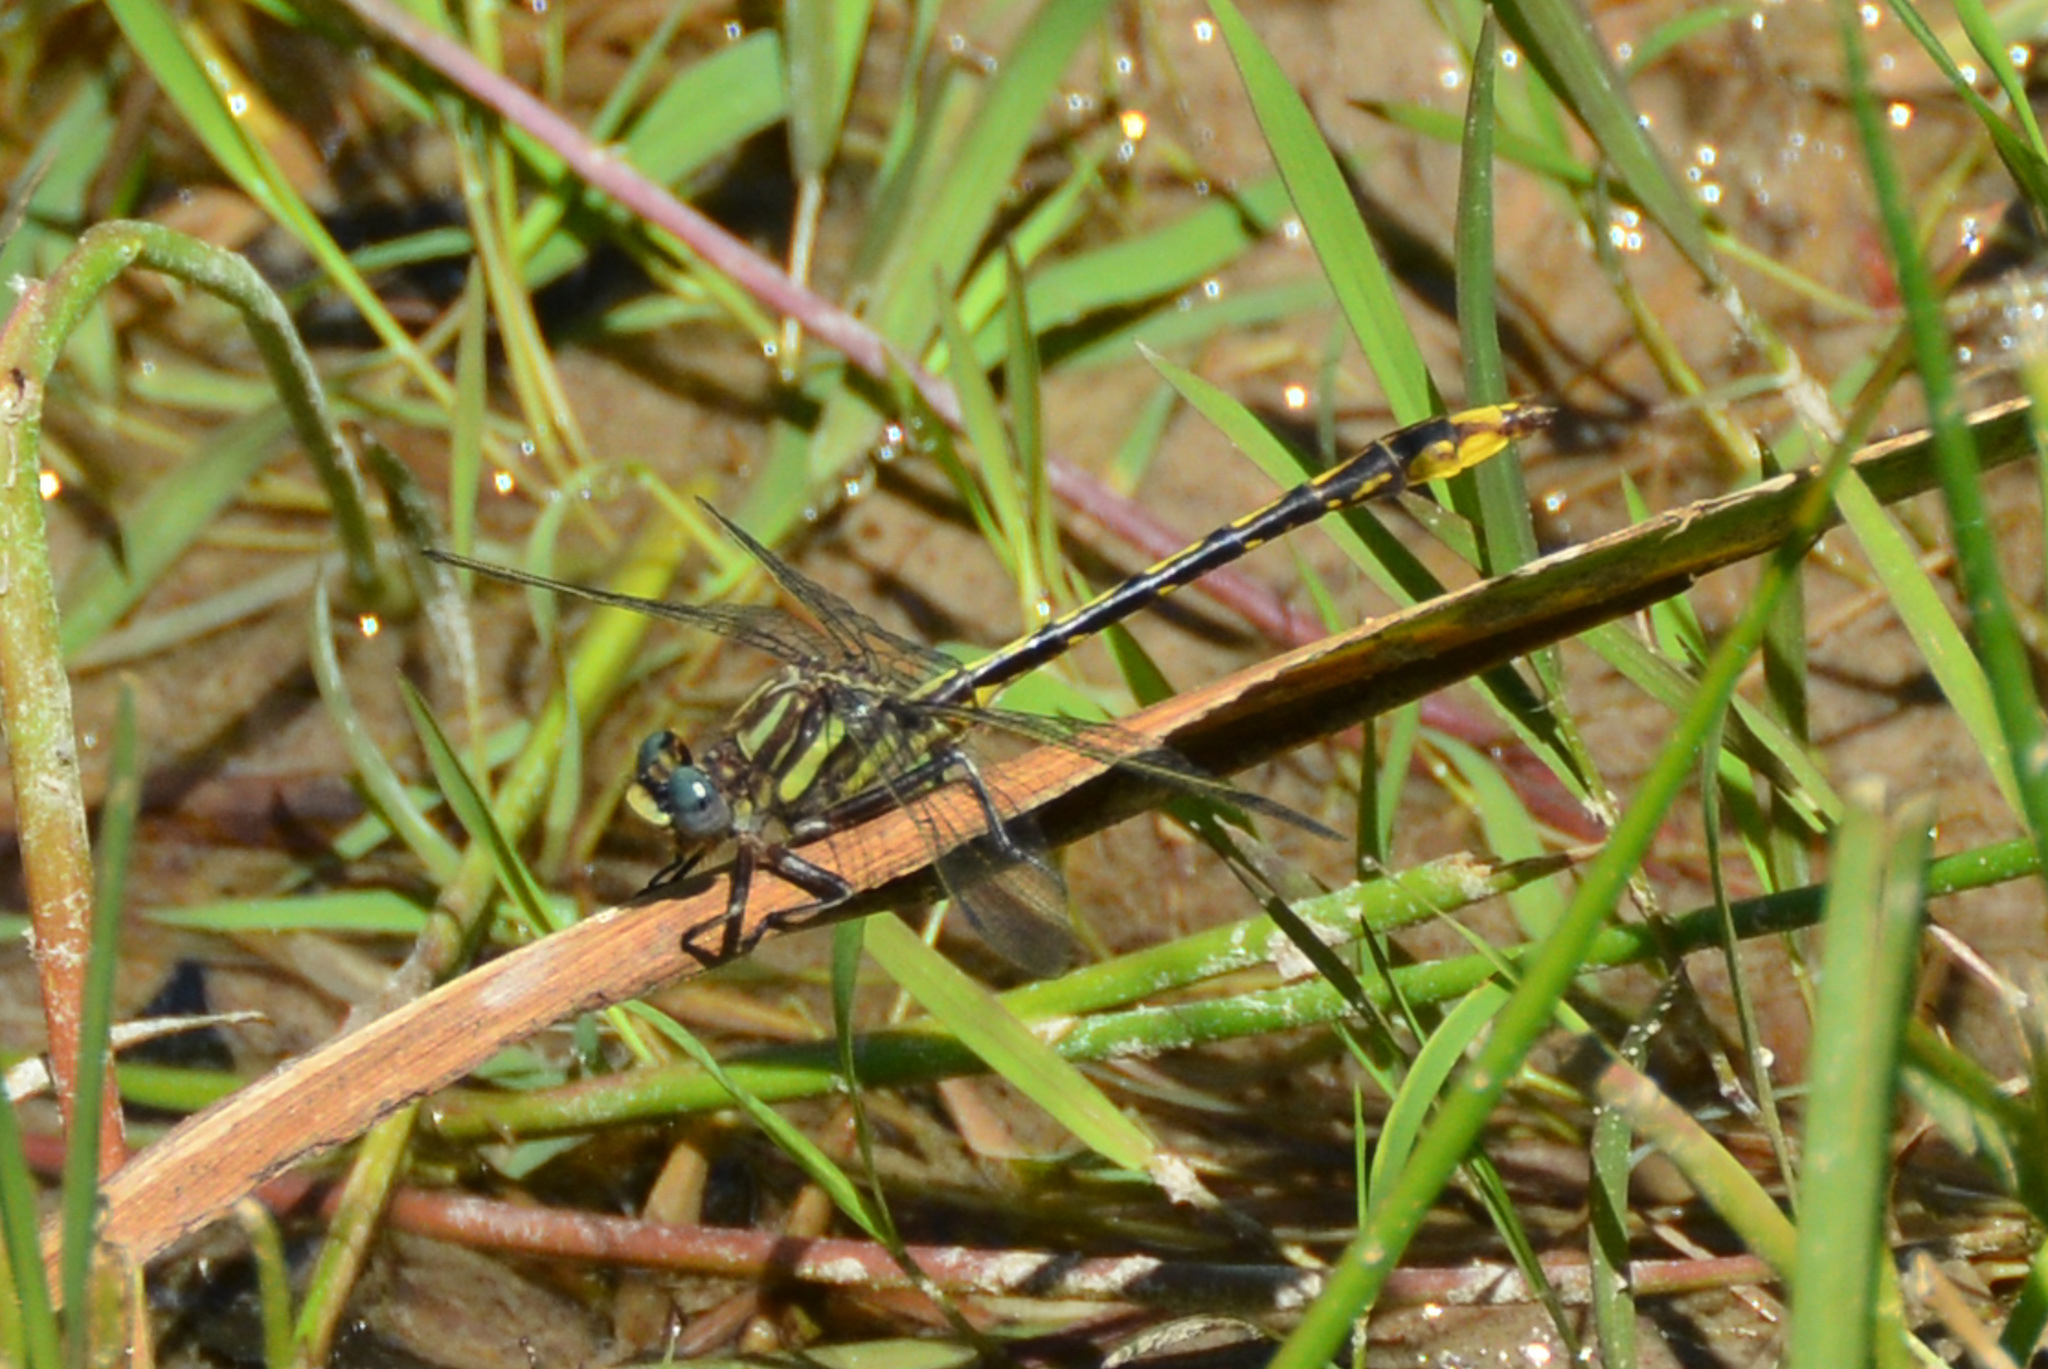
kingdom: Animalia
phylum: Arthropoda
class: Insecta
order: Odonata
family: Gomphidae
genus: Phanogomphus
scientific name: Phanogomphus exilis
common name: Lancet clubtail
